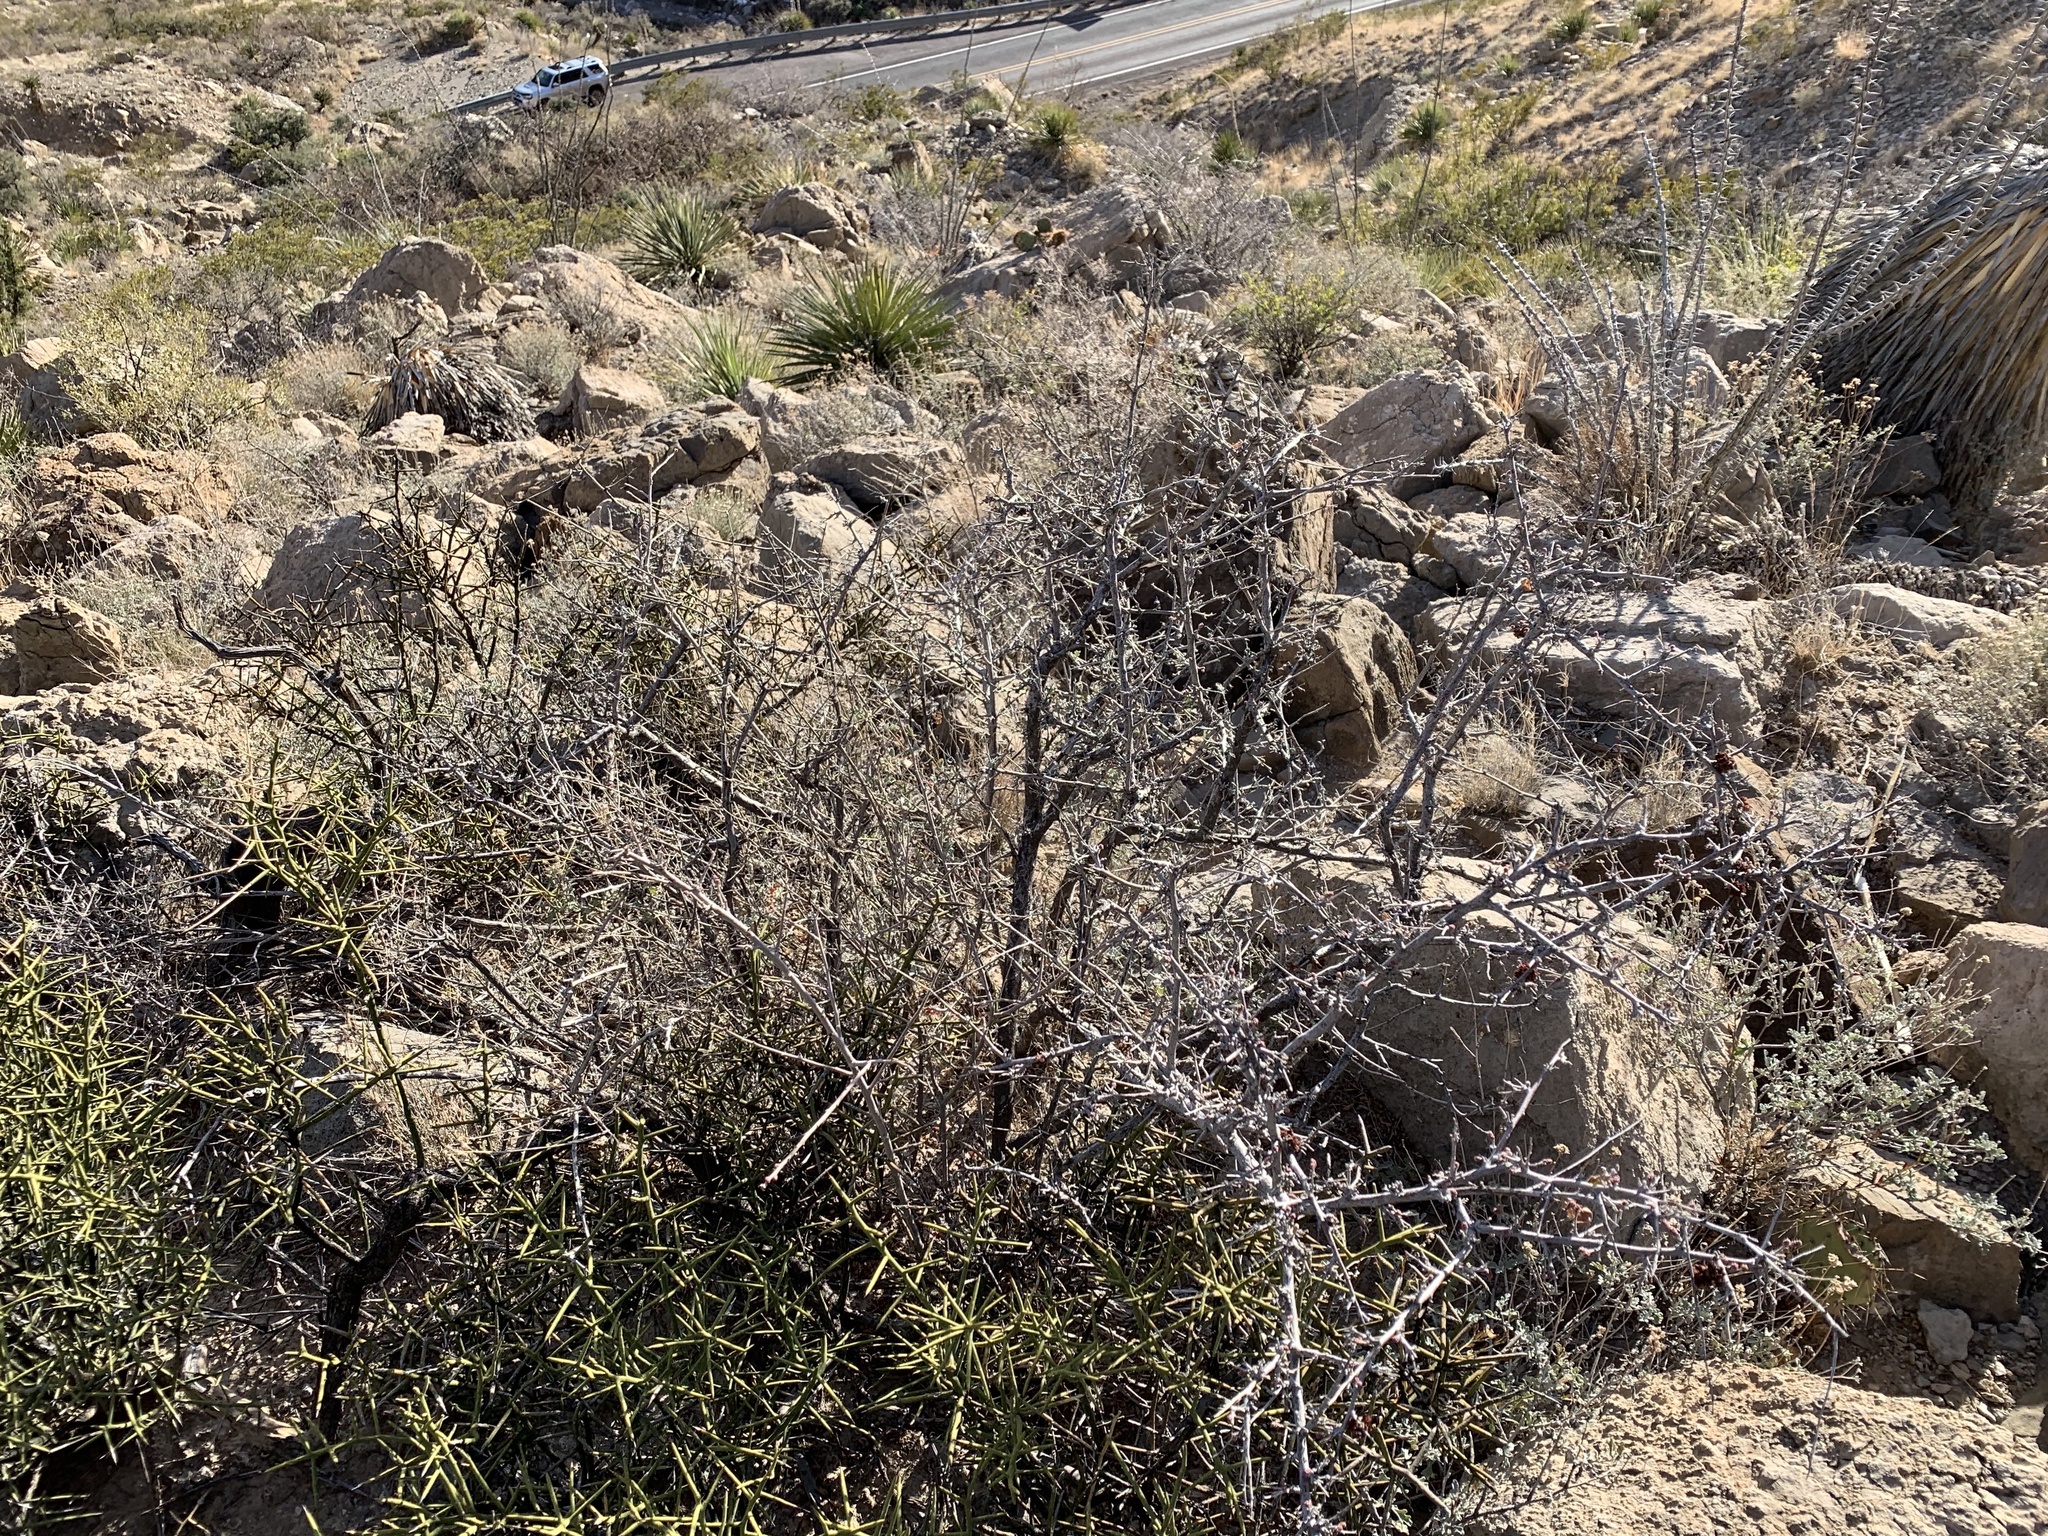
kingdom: Plantae
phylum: Tracheophyta
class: Magnoliopsida
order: Sapindales
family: Anacardiaceae
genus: Rhus
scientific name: Rhus microphylla
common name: Desert sumac
